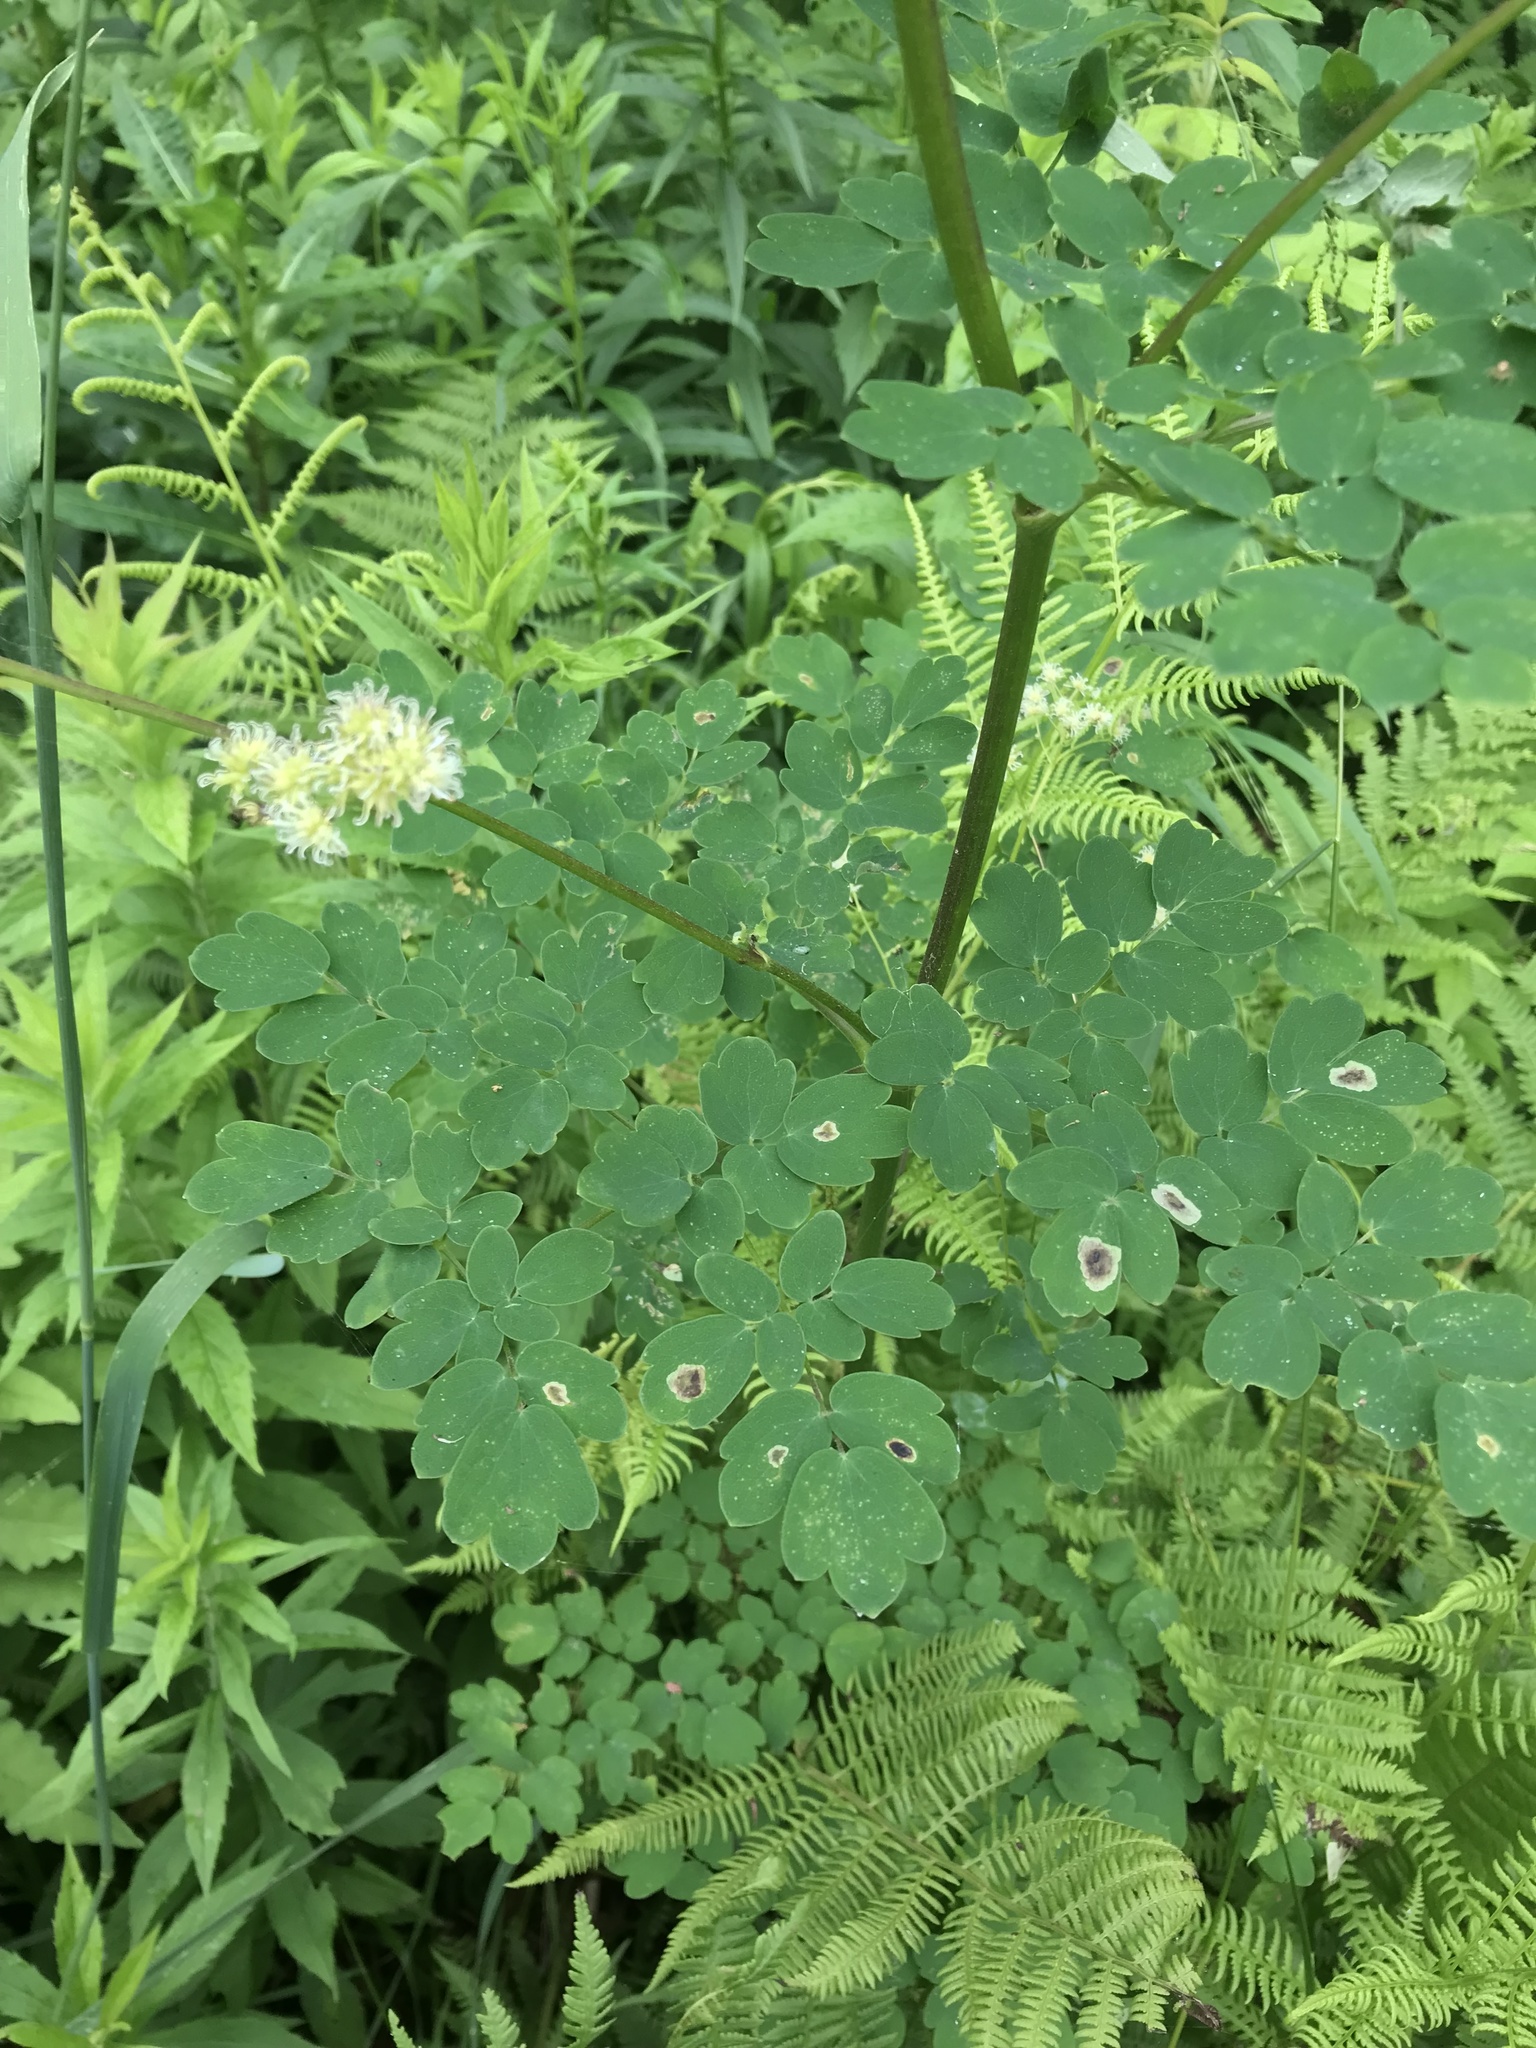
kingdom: Plantae
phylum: Tracheophyta
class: Magnoliopsida
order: Ranunculales
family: Ranunculaceae
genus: Thalictrum
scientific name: Thalictrum pubescens
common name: King-of-the-meadow
